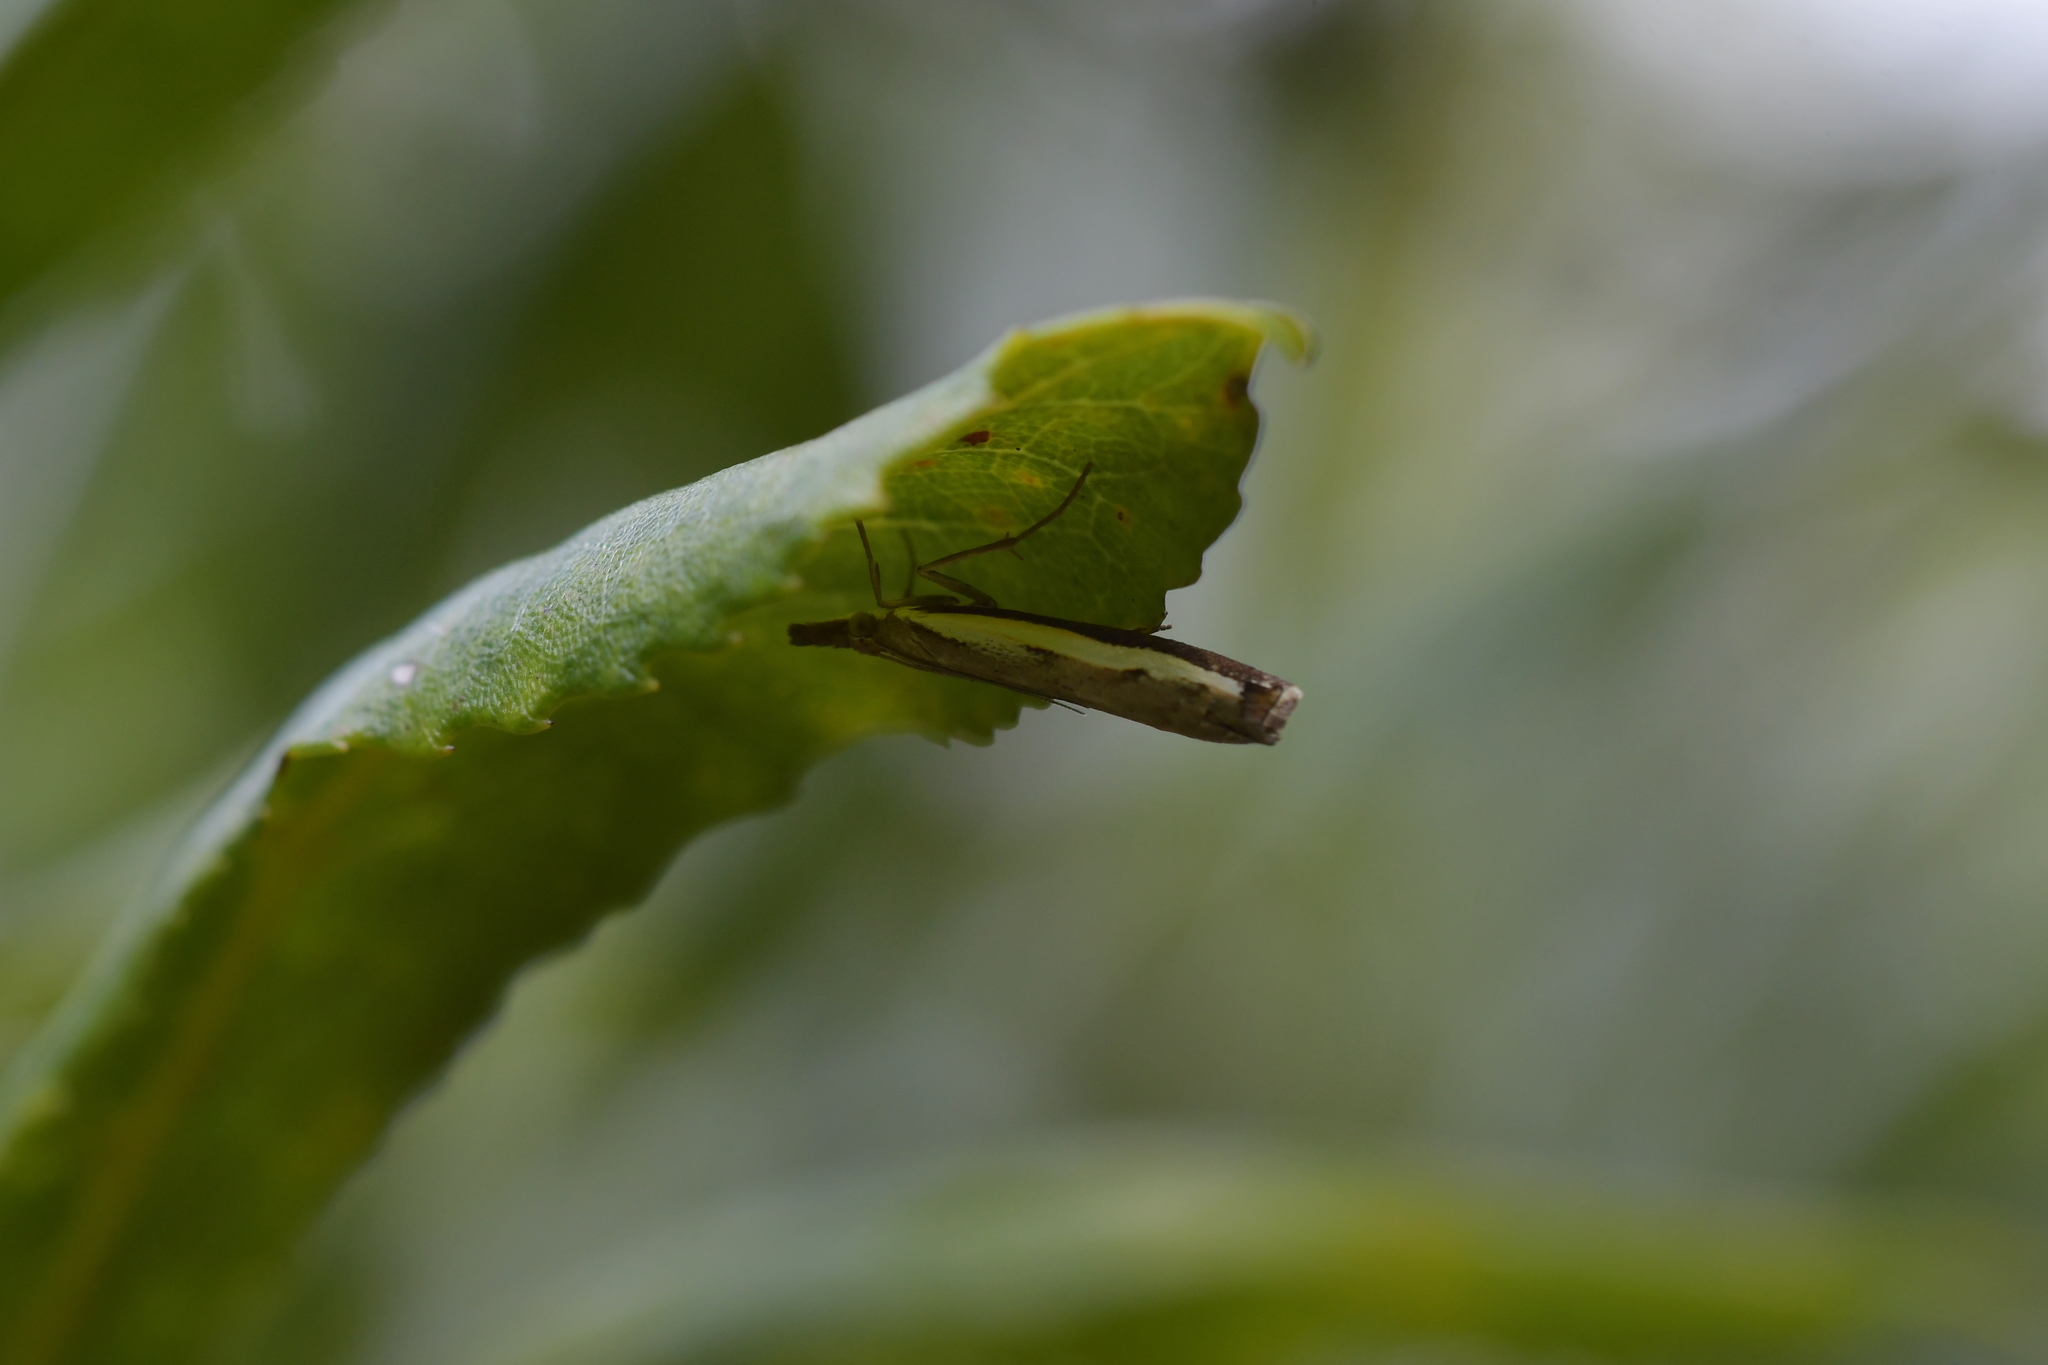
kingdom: Animalia
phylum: Arthropoda
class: Insecta
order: Lepidoptera
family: Crambidae
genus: Orocrambus
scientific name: Orocrambus flexuosellus
